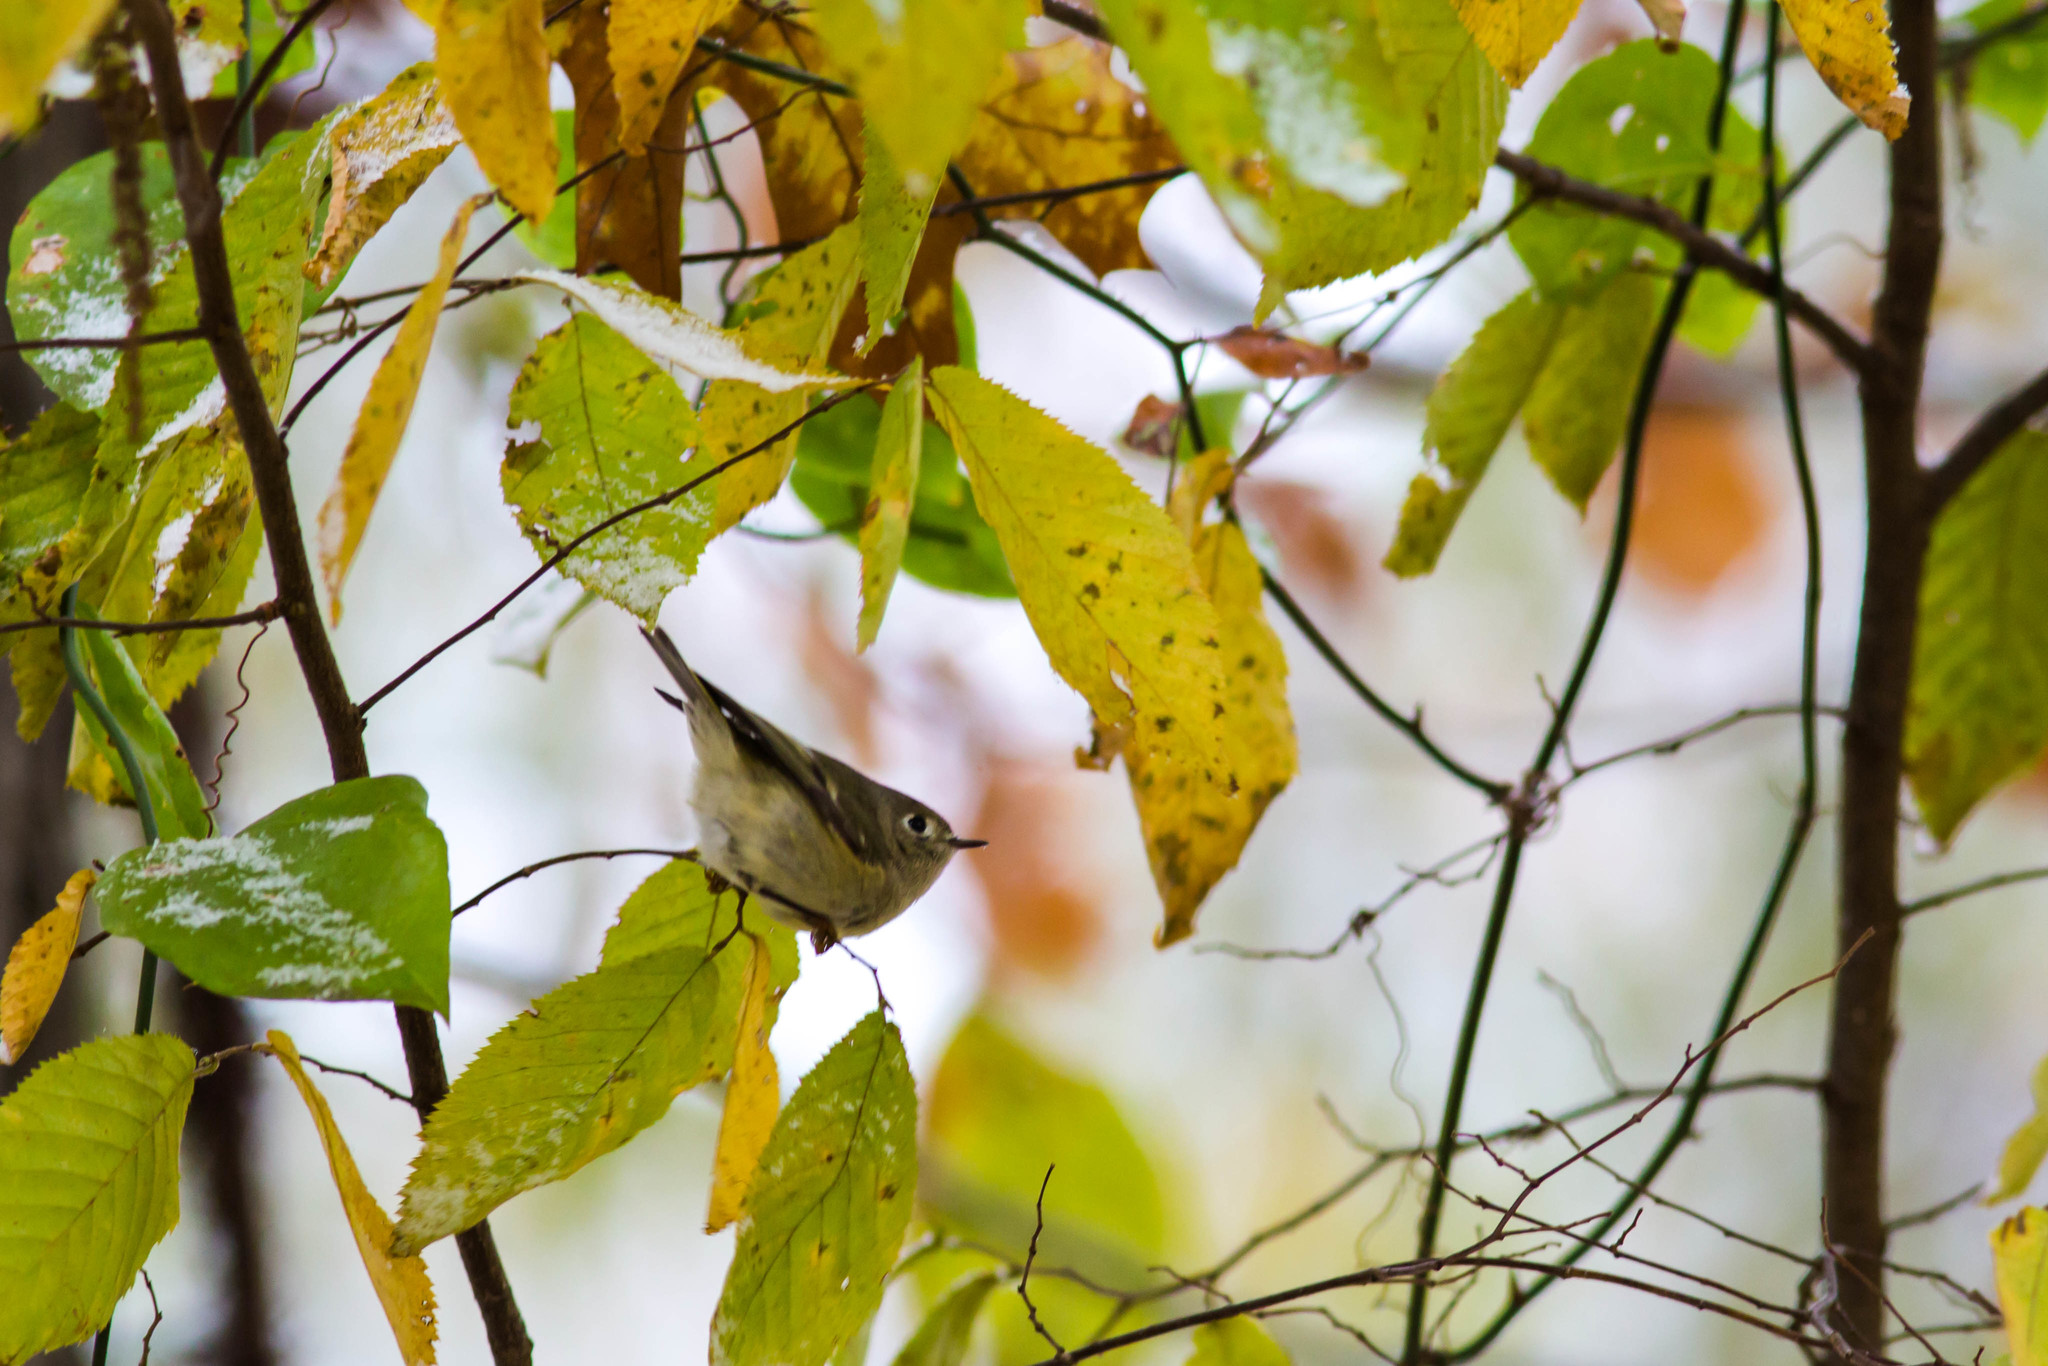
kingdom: Animalia
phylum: Chordata
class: Aves
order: Passeriformes
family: Regulidae
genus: Regulus
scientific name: Regulus calendula
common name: Ruby-crowned kinglet
